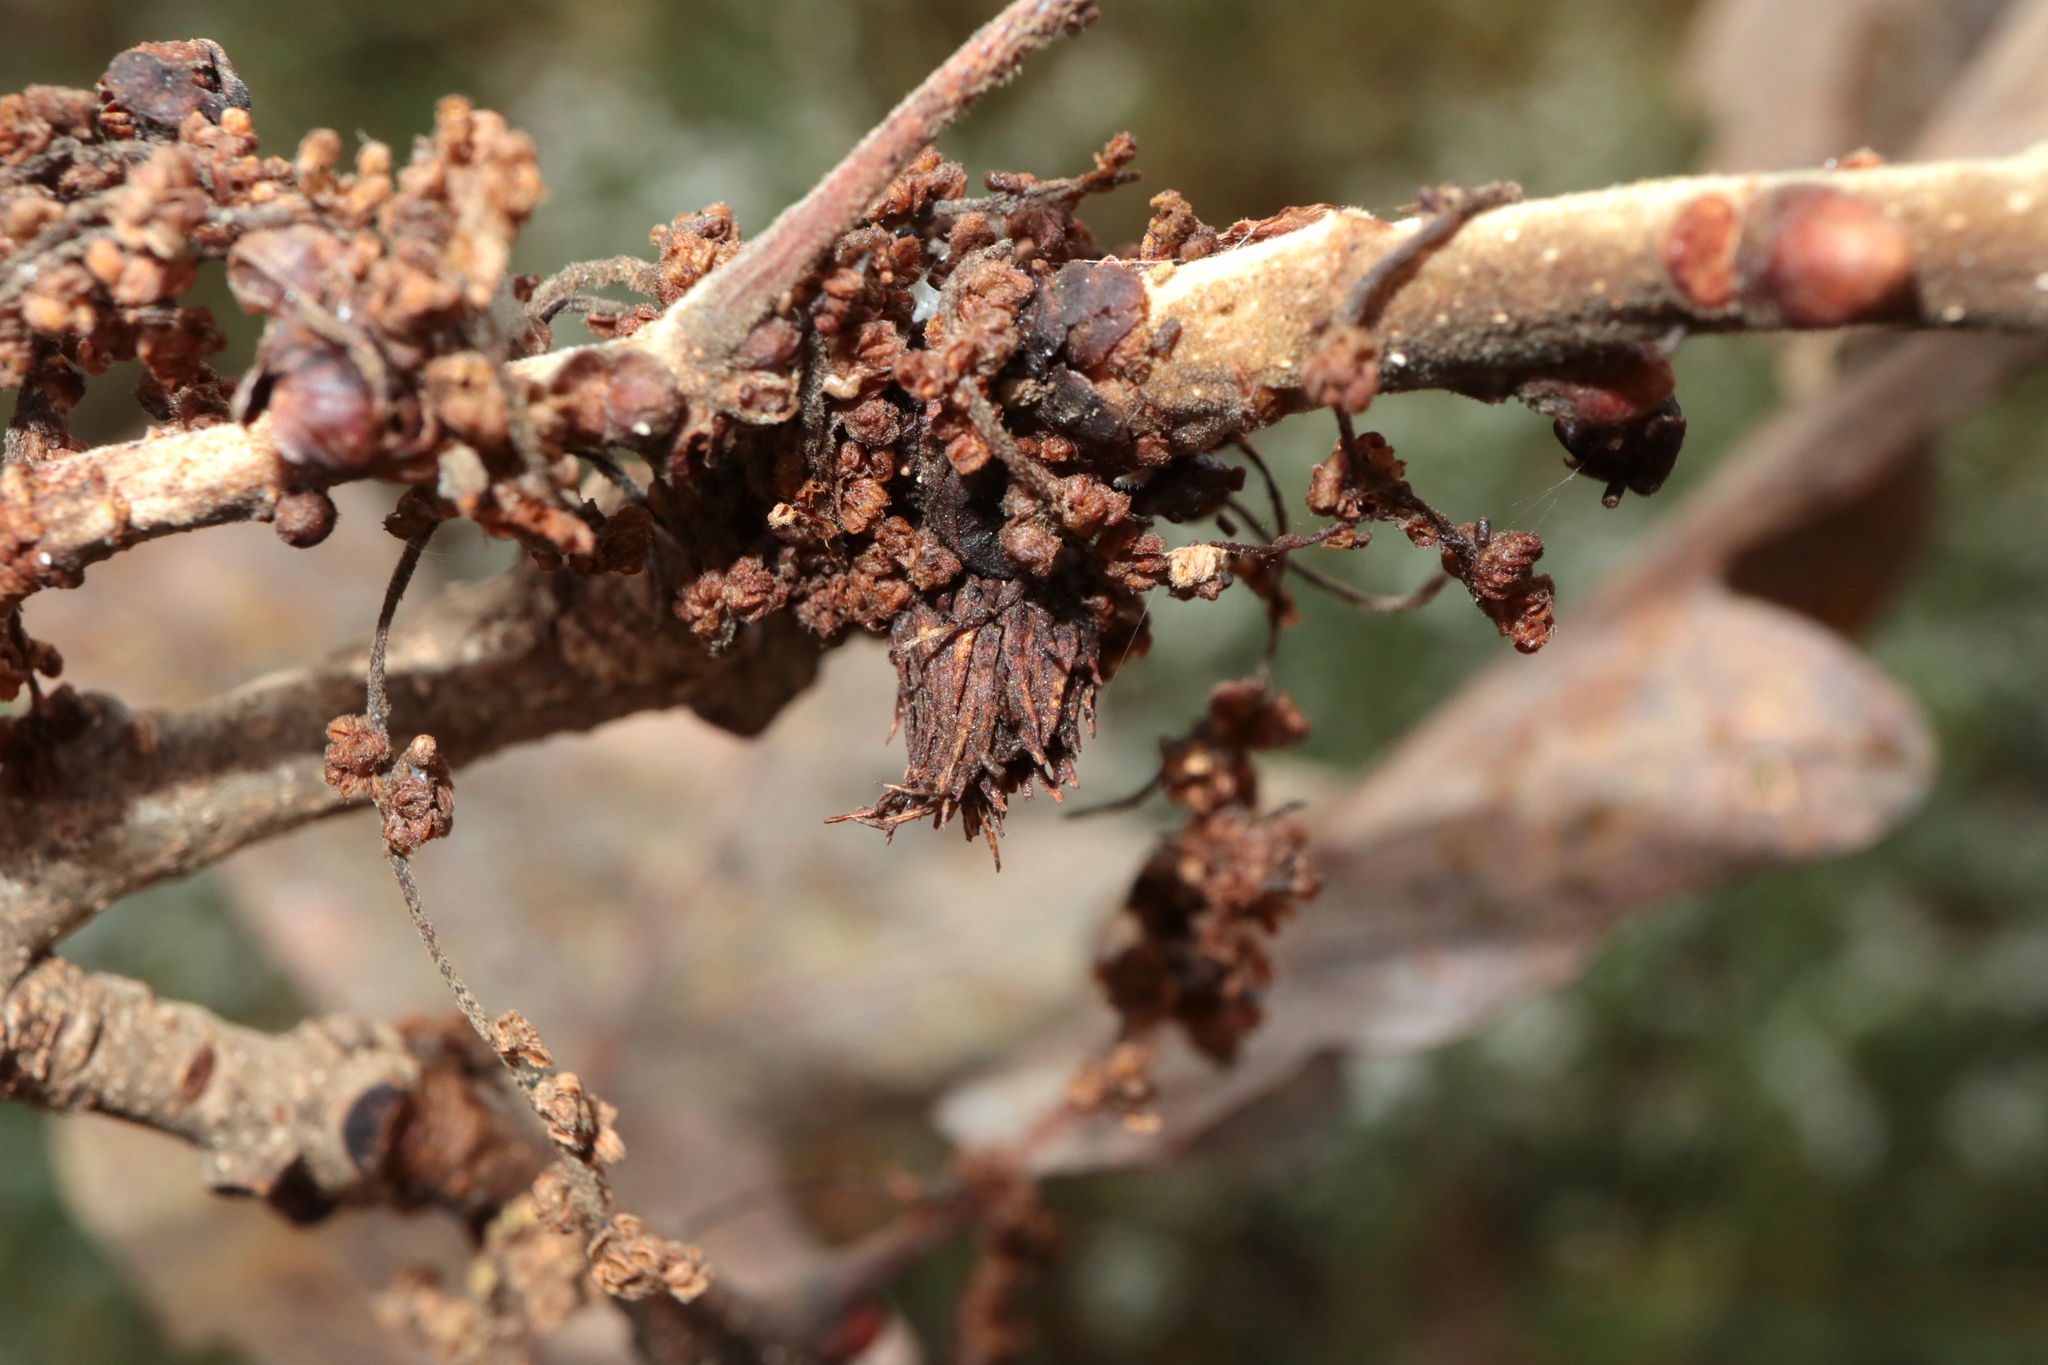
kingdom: Animalia
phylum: Arthropoda
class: Insecta
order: Hymenoptera
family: Cynipidae
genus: Andricus
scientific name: Andricus
